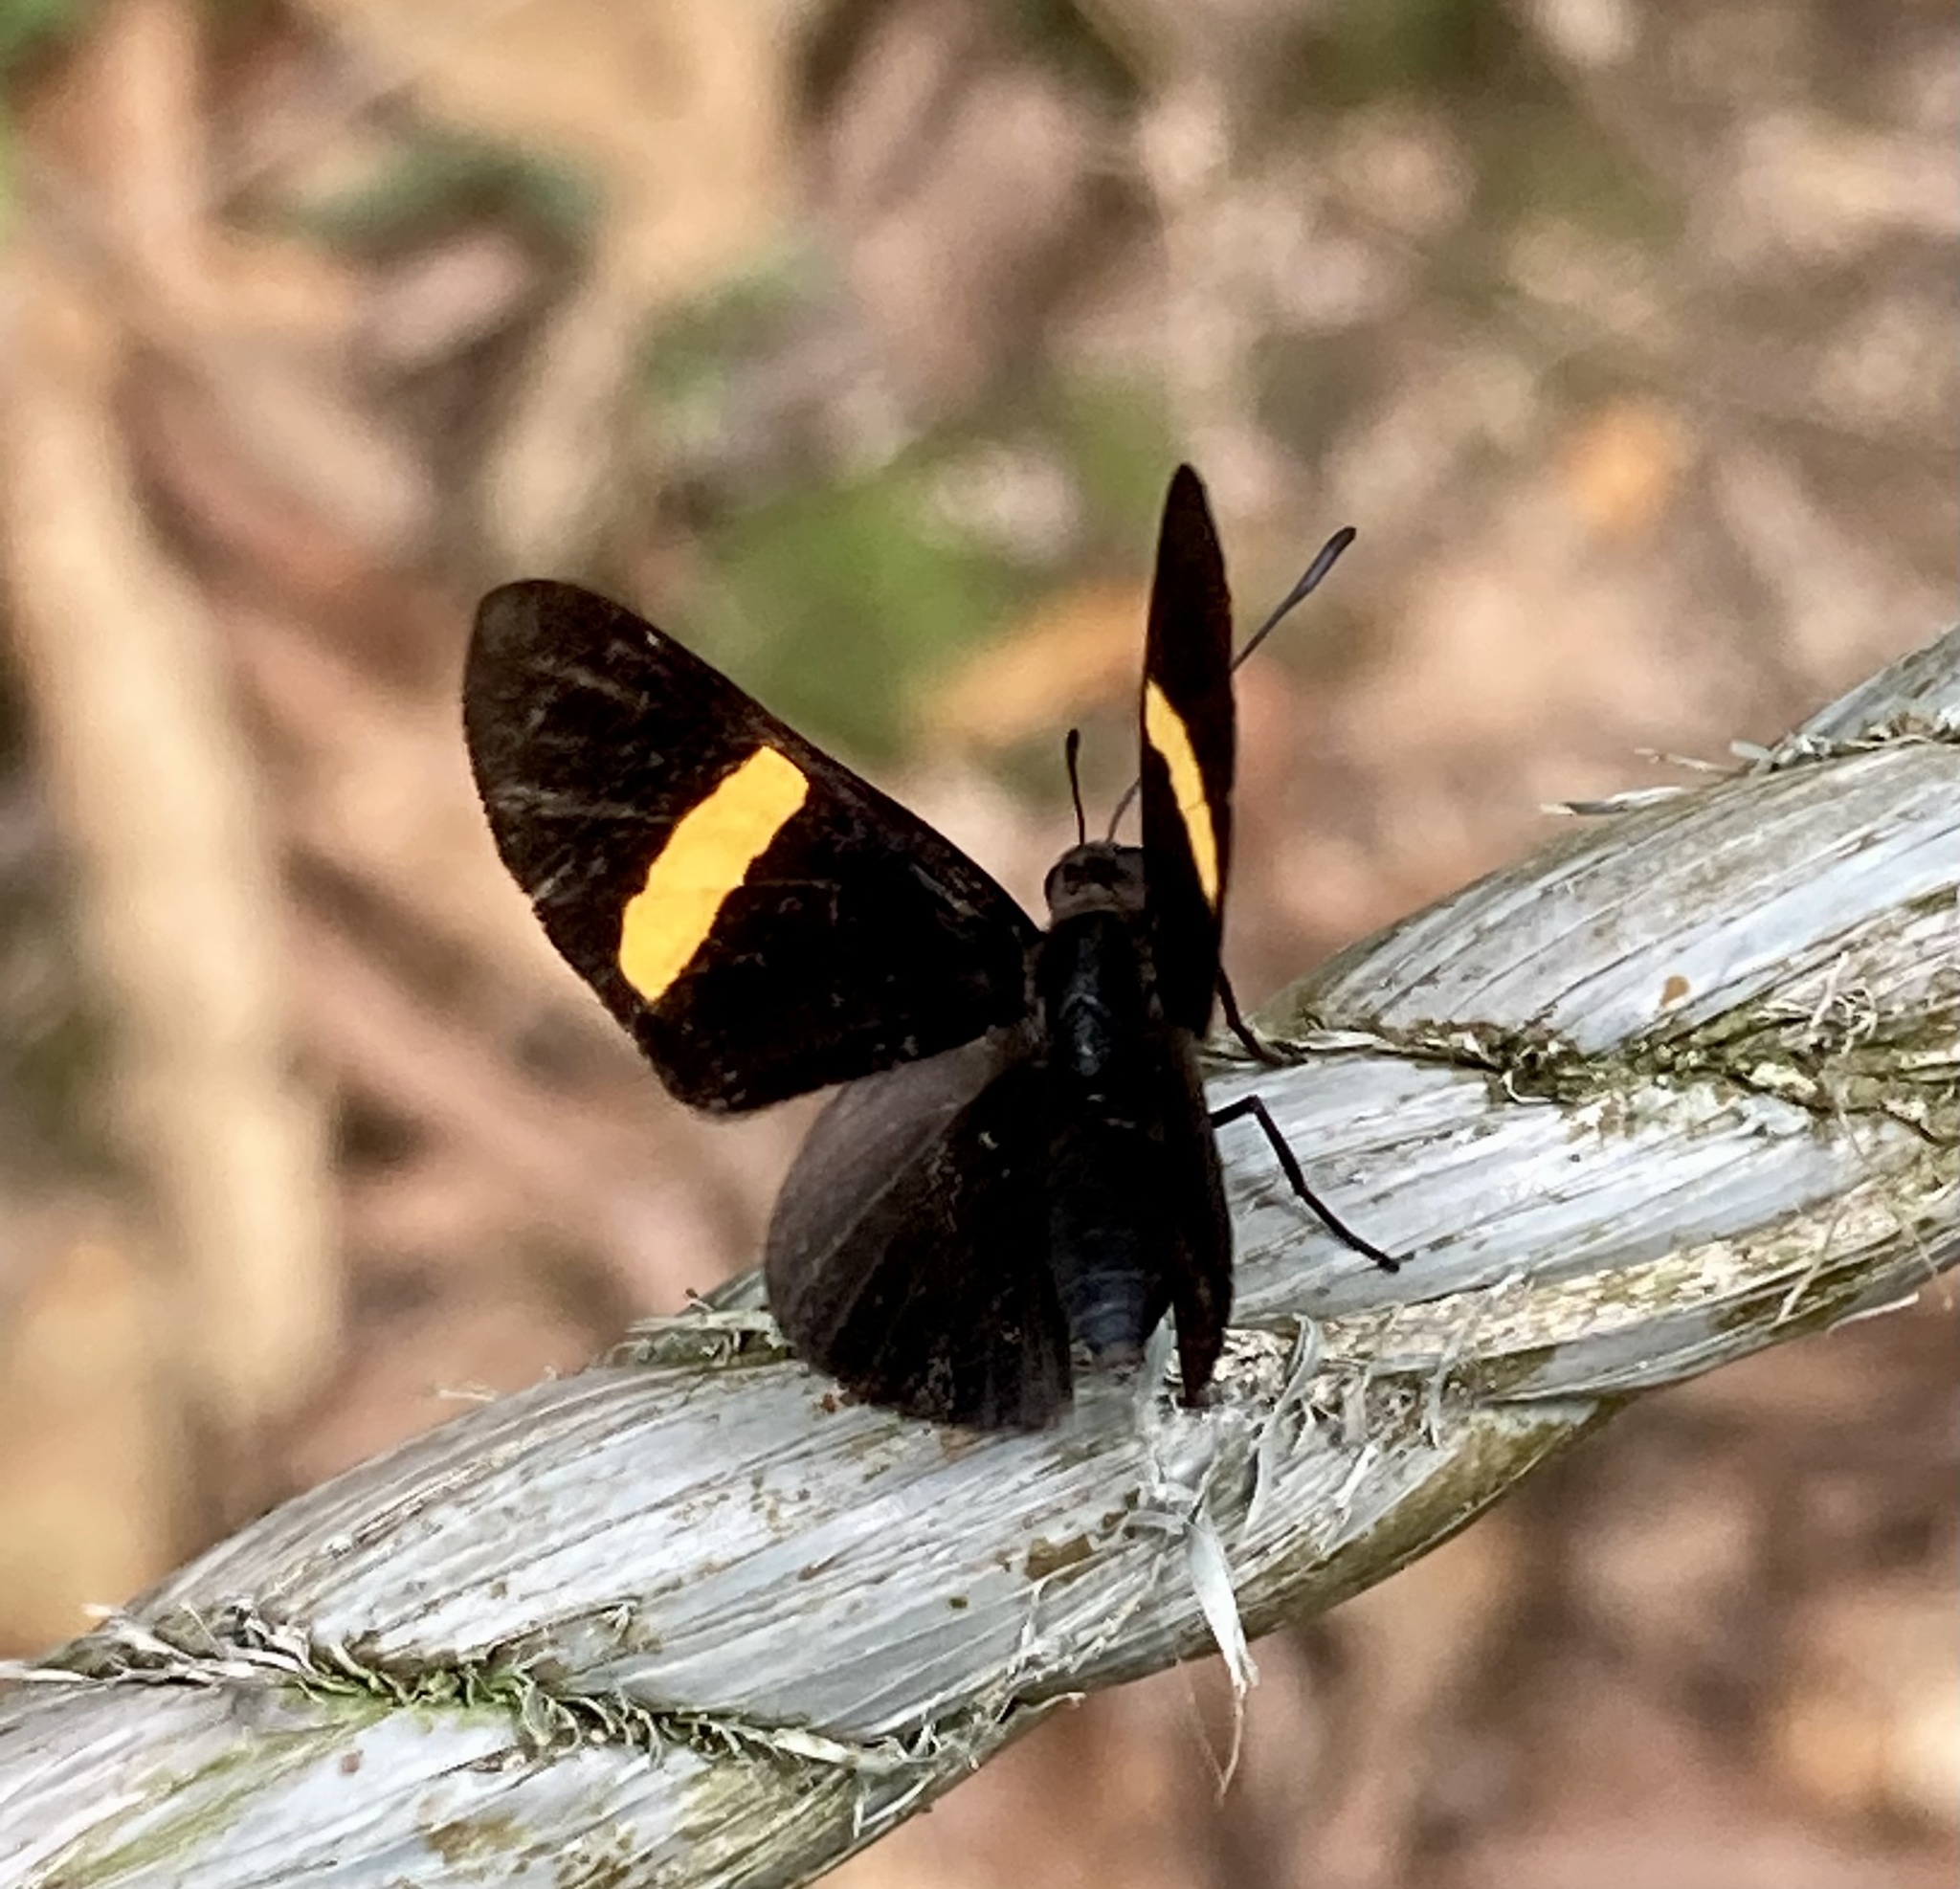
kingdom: Animalia
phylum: Arthropoda
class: Insecta
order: Lepidoptera
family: Lycaenidae
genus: Melanis
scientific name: Melanis agyrtus
